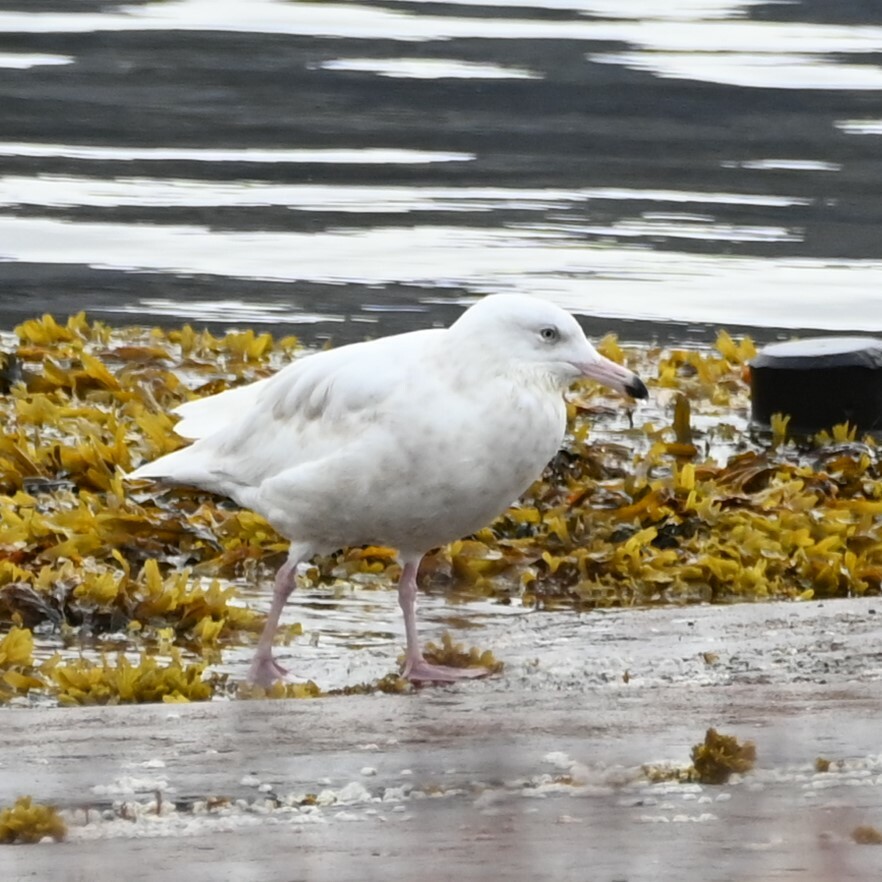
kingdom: Animalia
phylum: Chordata
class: Aves
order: Charadriiformes
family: Laridae
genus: Larus
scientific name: Larus hyperboreus
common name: Glaucous gull
